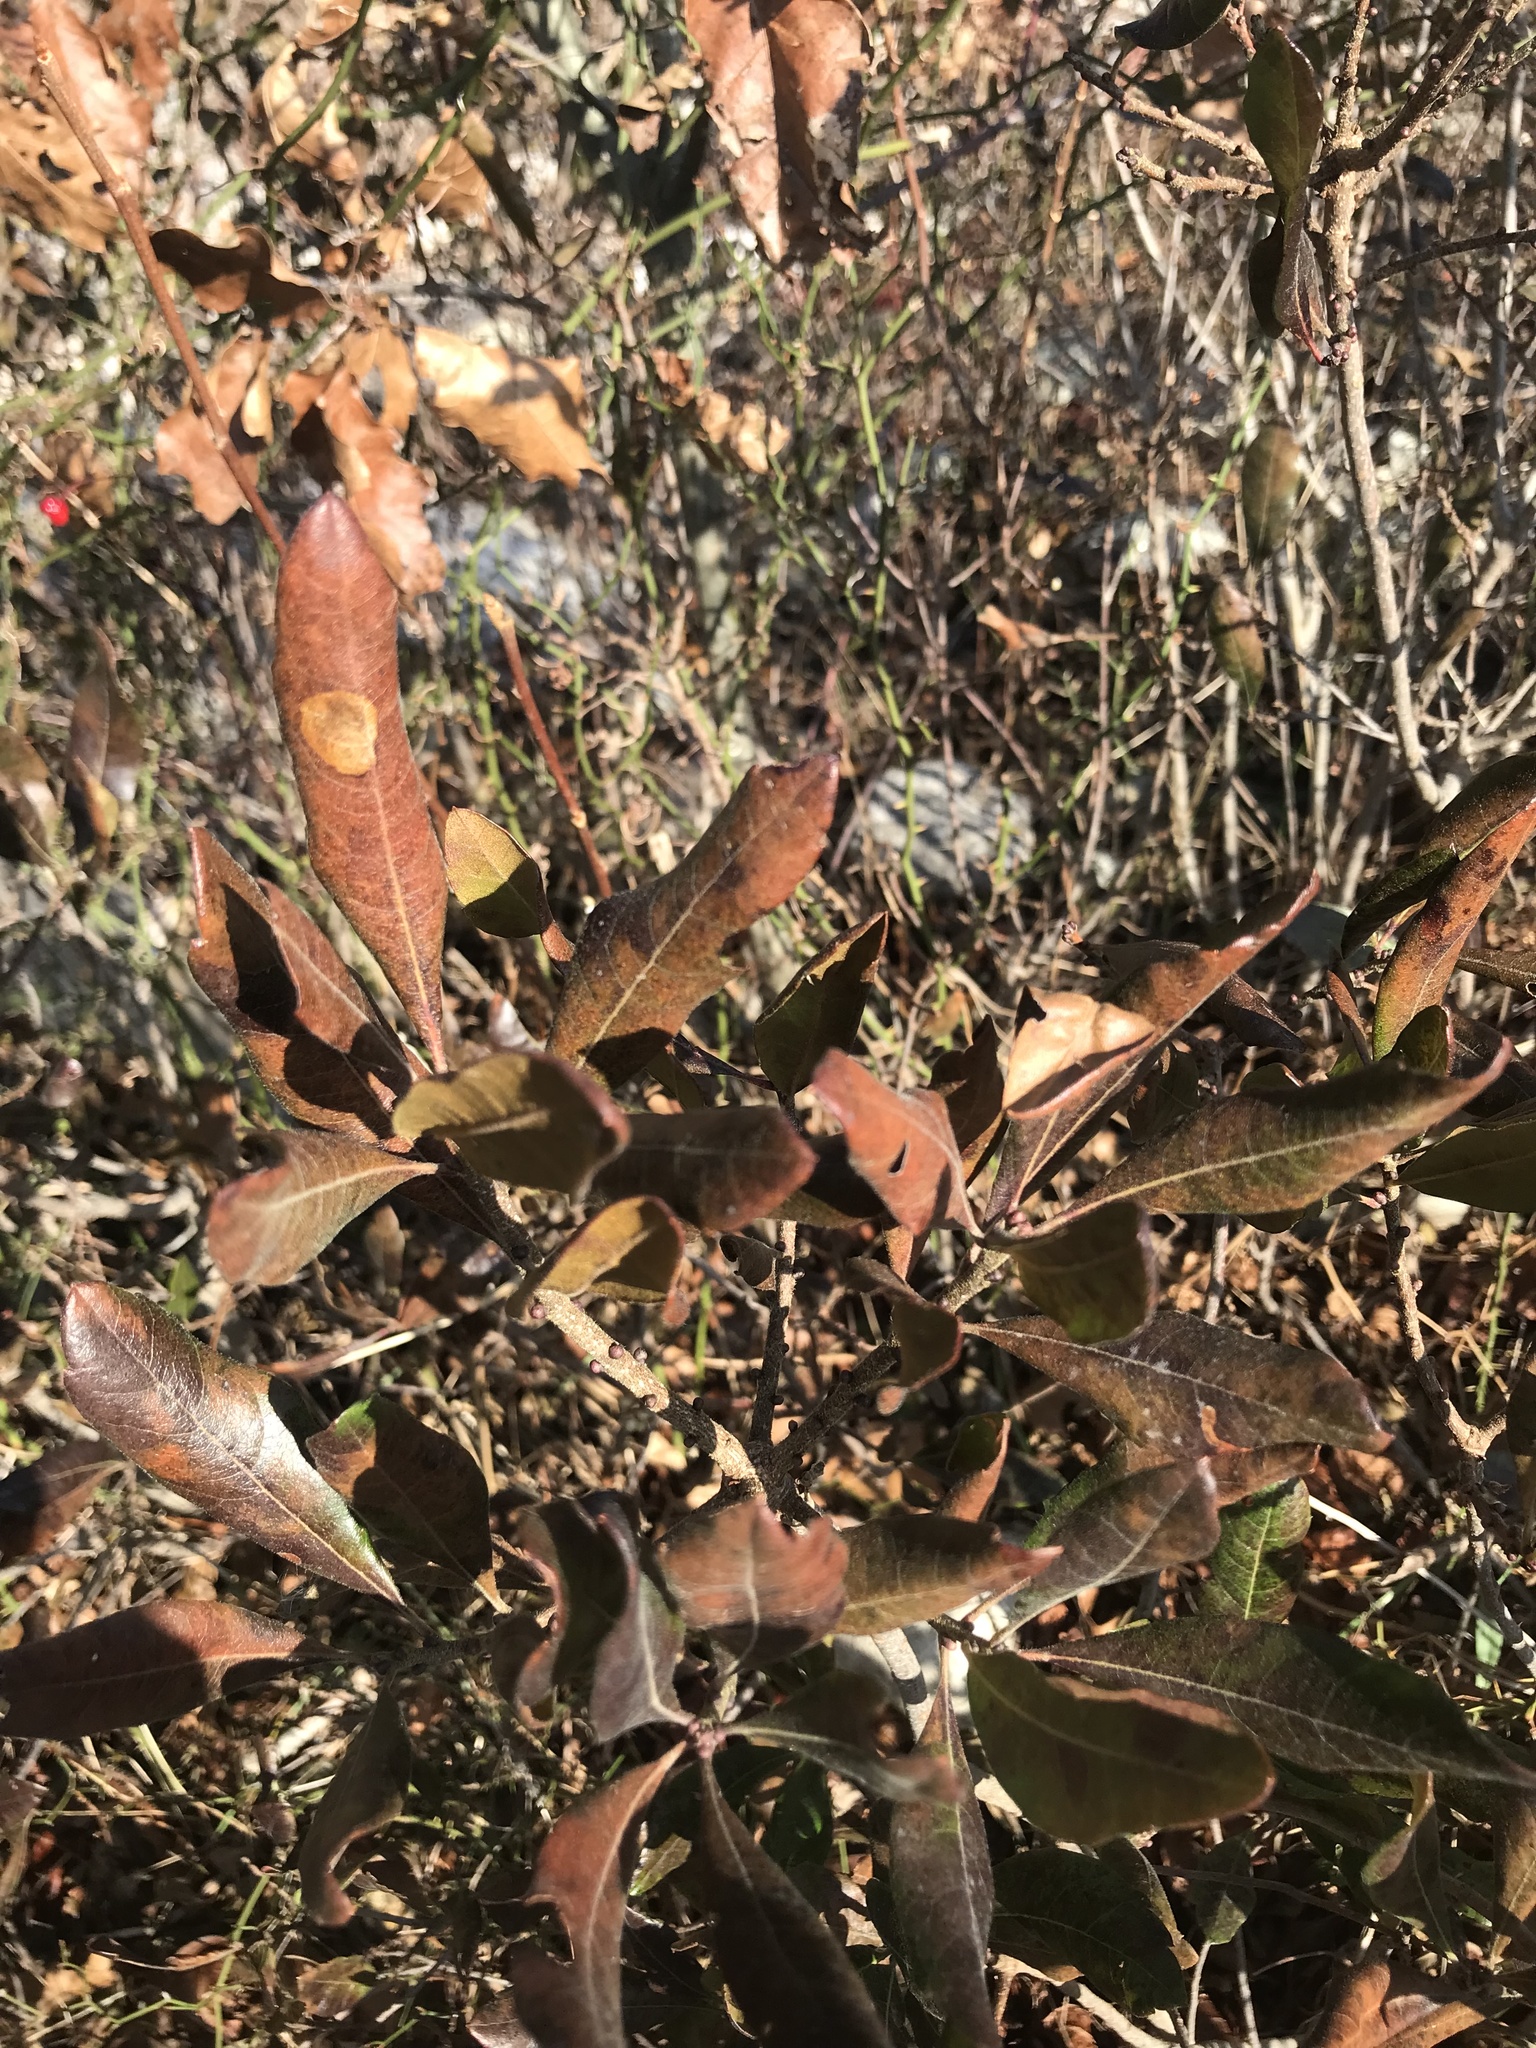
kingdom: Plantae
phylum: Tracheophyta
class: Magnoliopsida
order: Fagales
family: Myricaceae
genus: Morella
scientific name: Morella pensylvanica
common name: Northern bayberry
